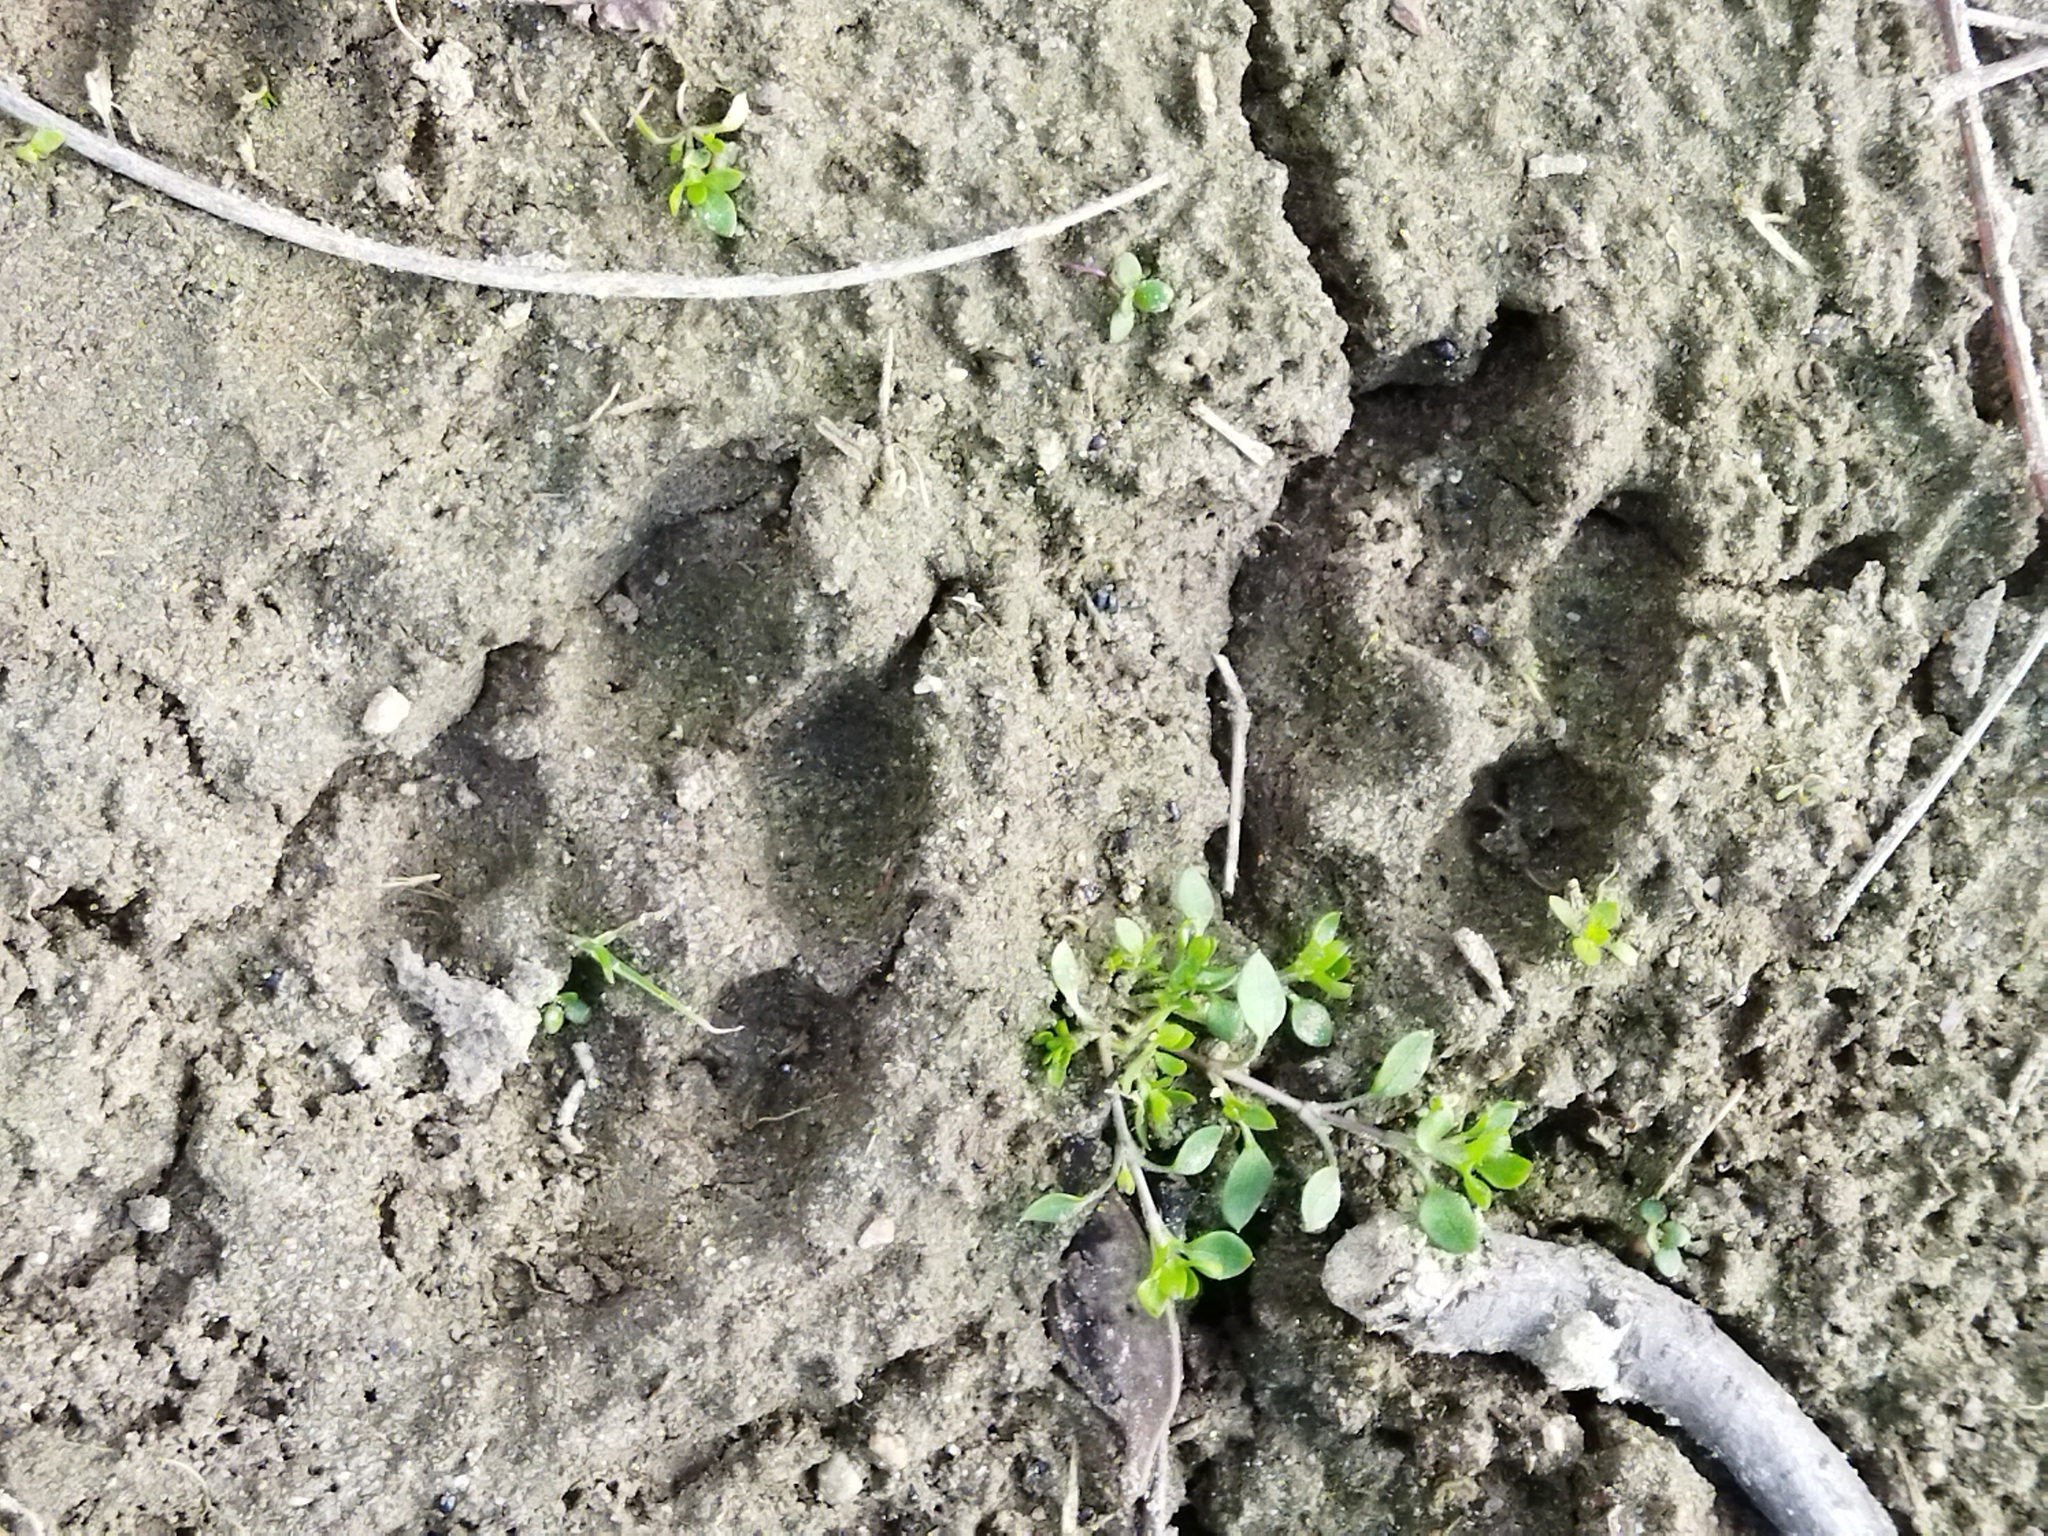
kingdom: Animalia
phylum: Chordata
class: Mammalia
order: Carnivora
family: Canidae
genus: Vulpes
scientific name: Vulpes vulpes
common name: Red fox
